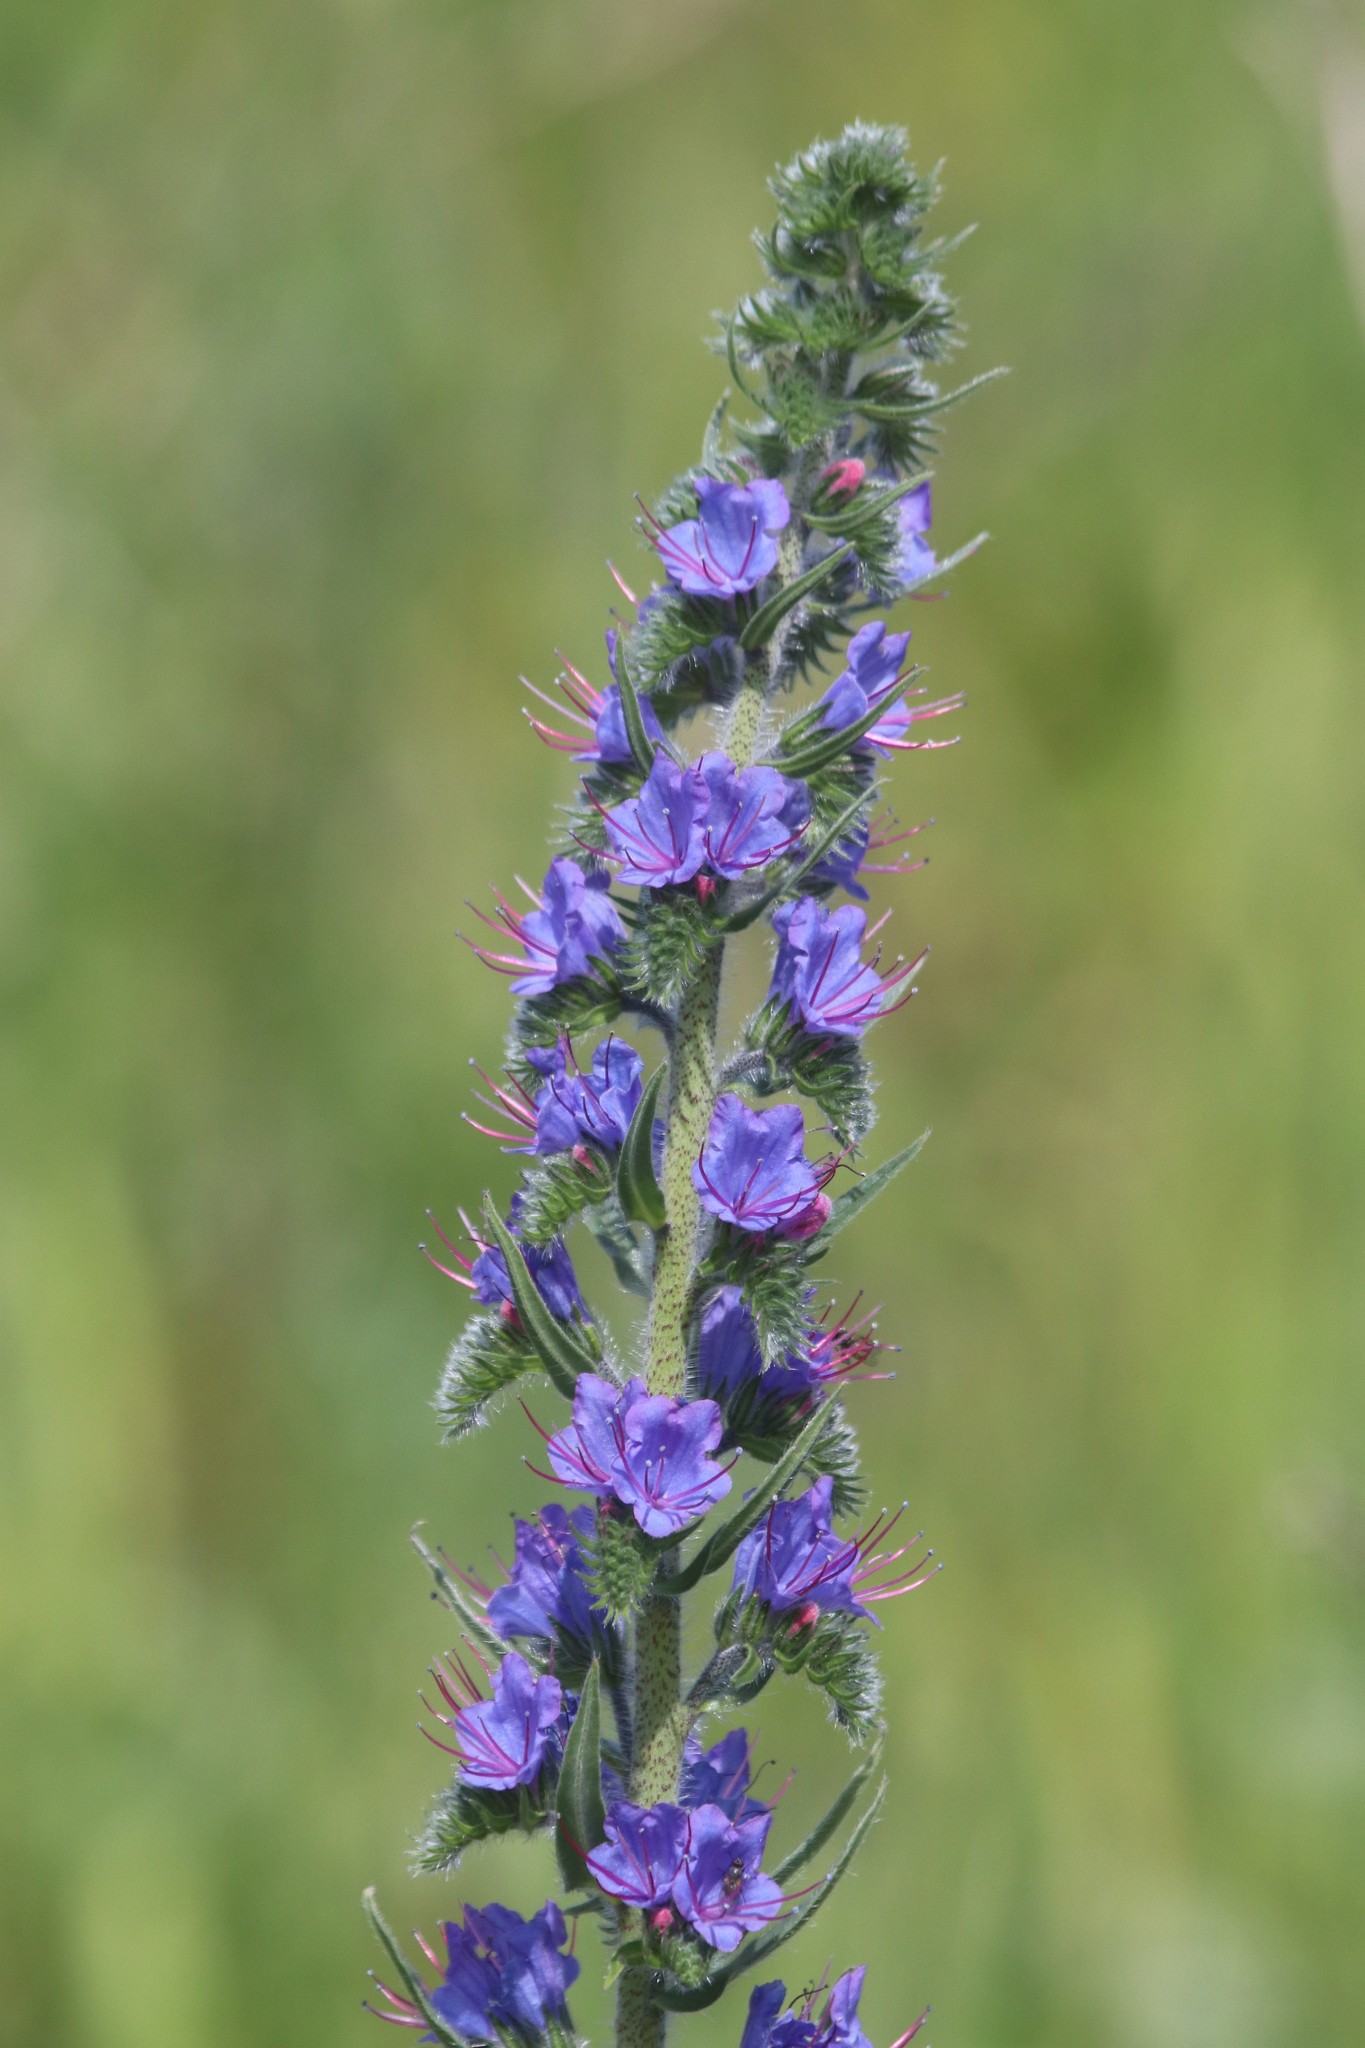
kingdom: Plantae
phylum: Tracheophyta
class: Magnoliopsida
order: Boraginales
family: Boraginaceae
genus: Echium
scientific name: Echium vulgare
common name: Common viper's bugloss
